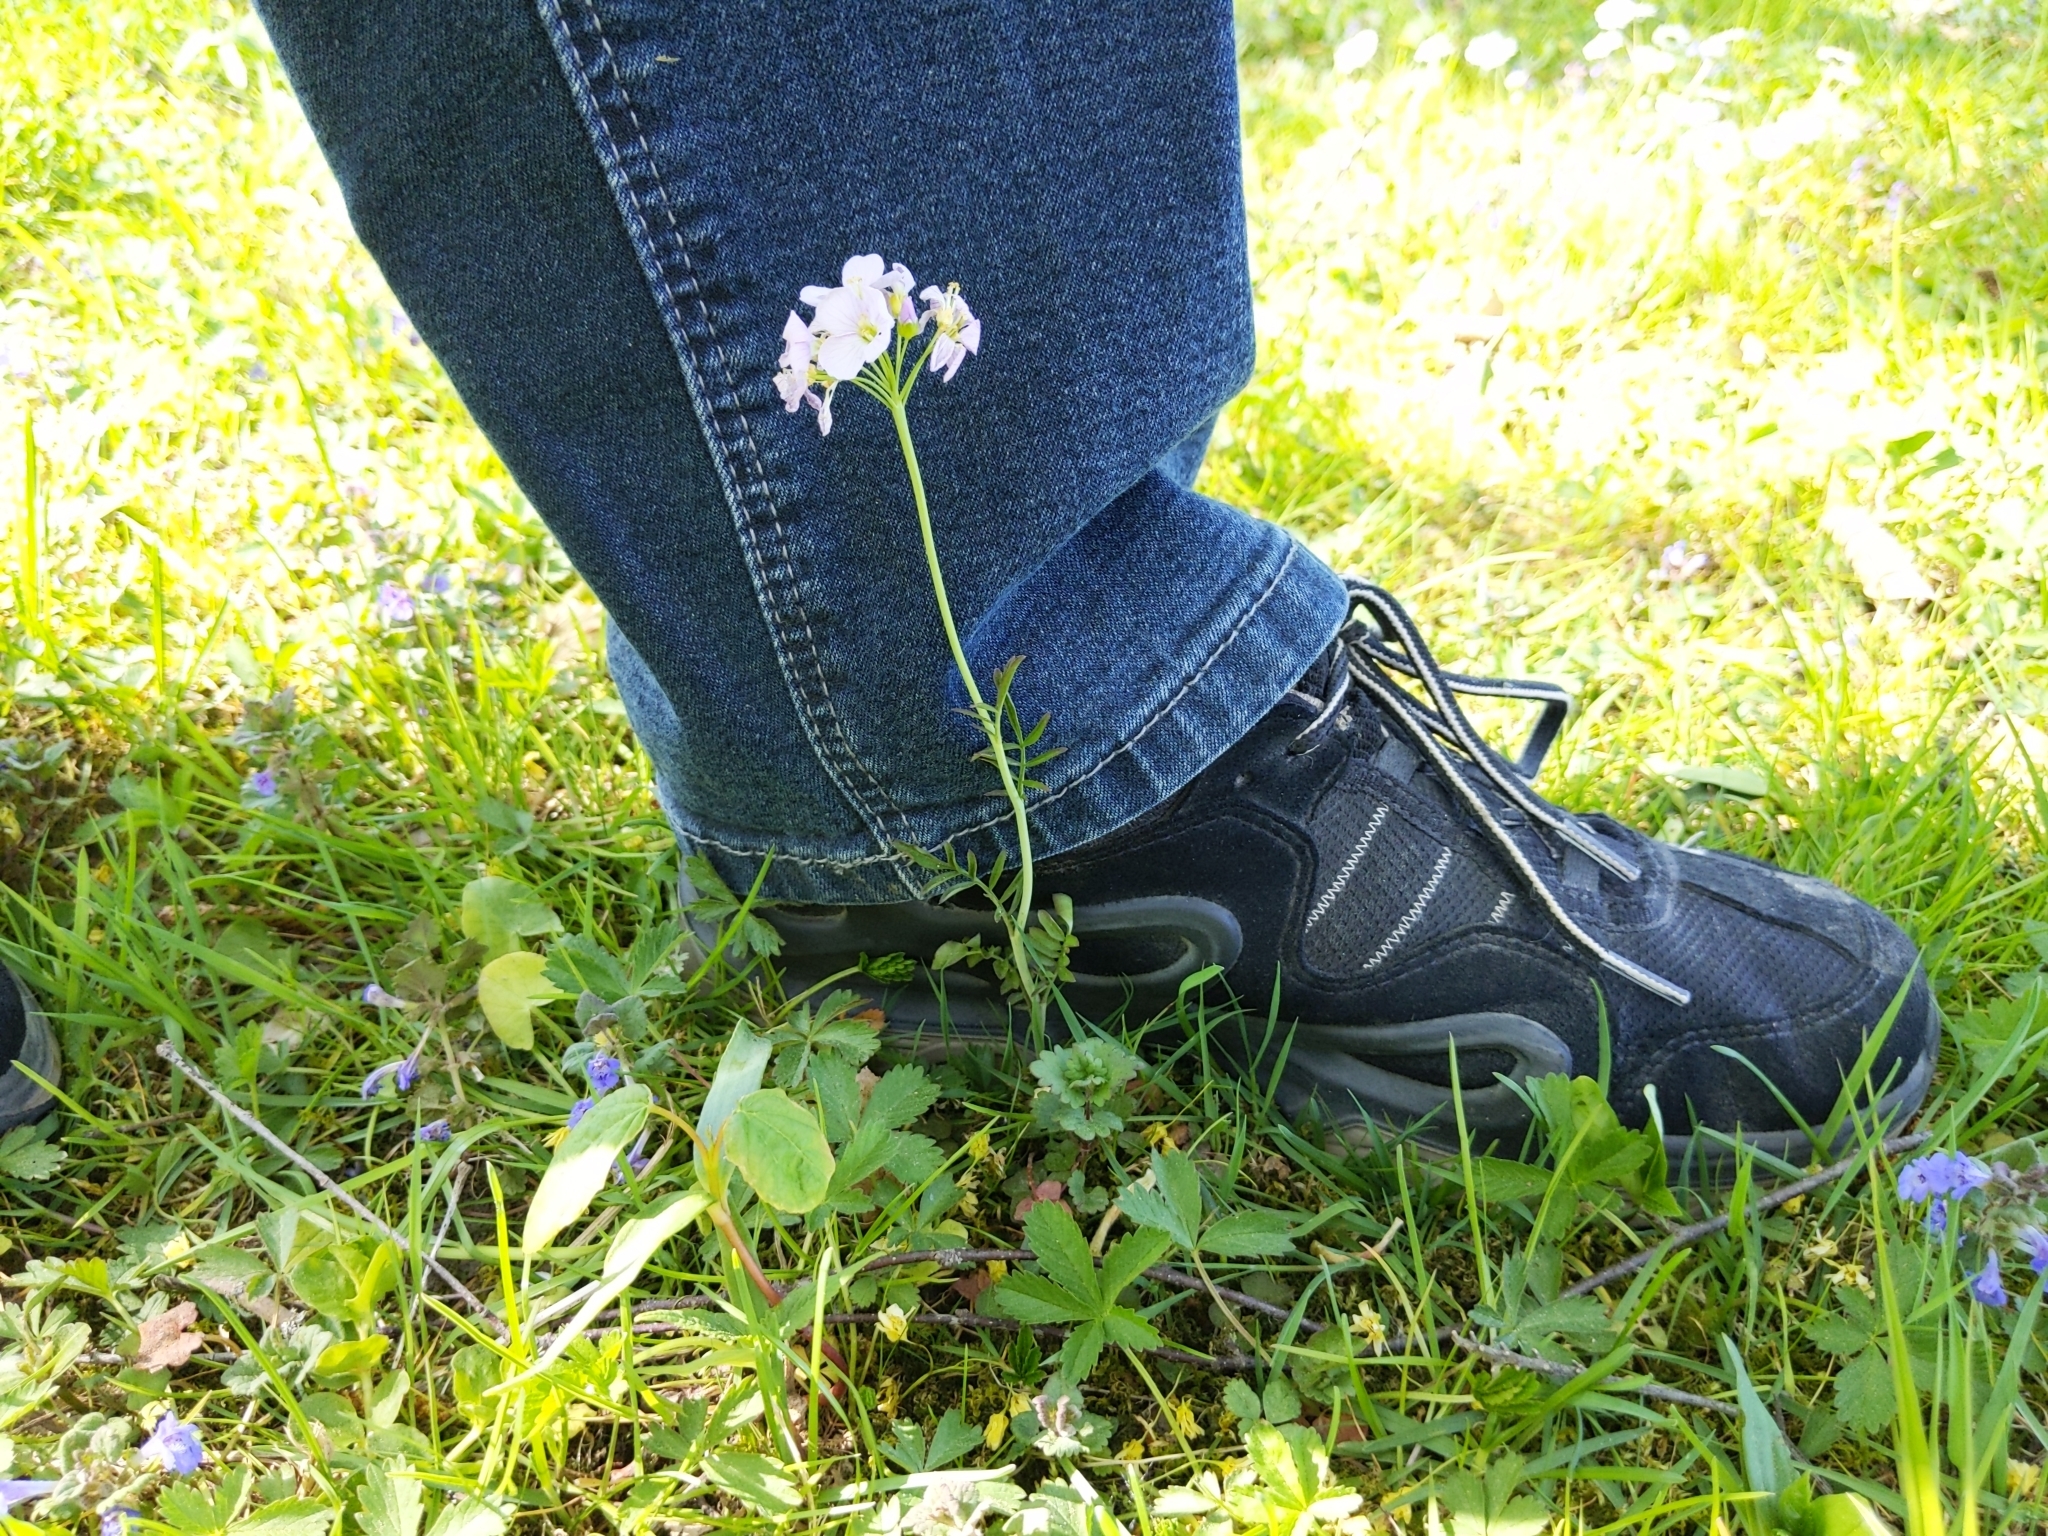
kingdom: Plantae
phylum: Tracheophyta
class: Magnoliopsida
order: Brassicales
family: Brassicaceae
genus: Cardamine
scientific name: Cardamine pratensis
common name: Cuckoo flower
